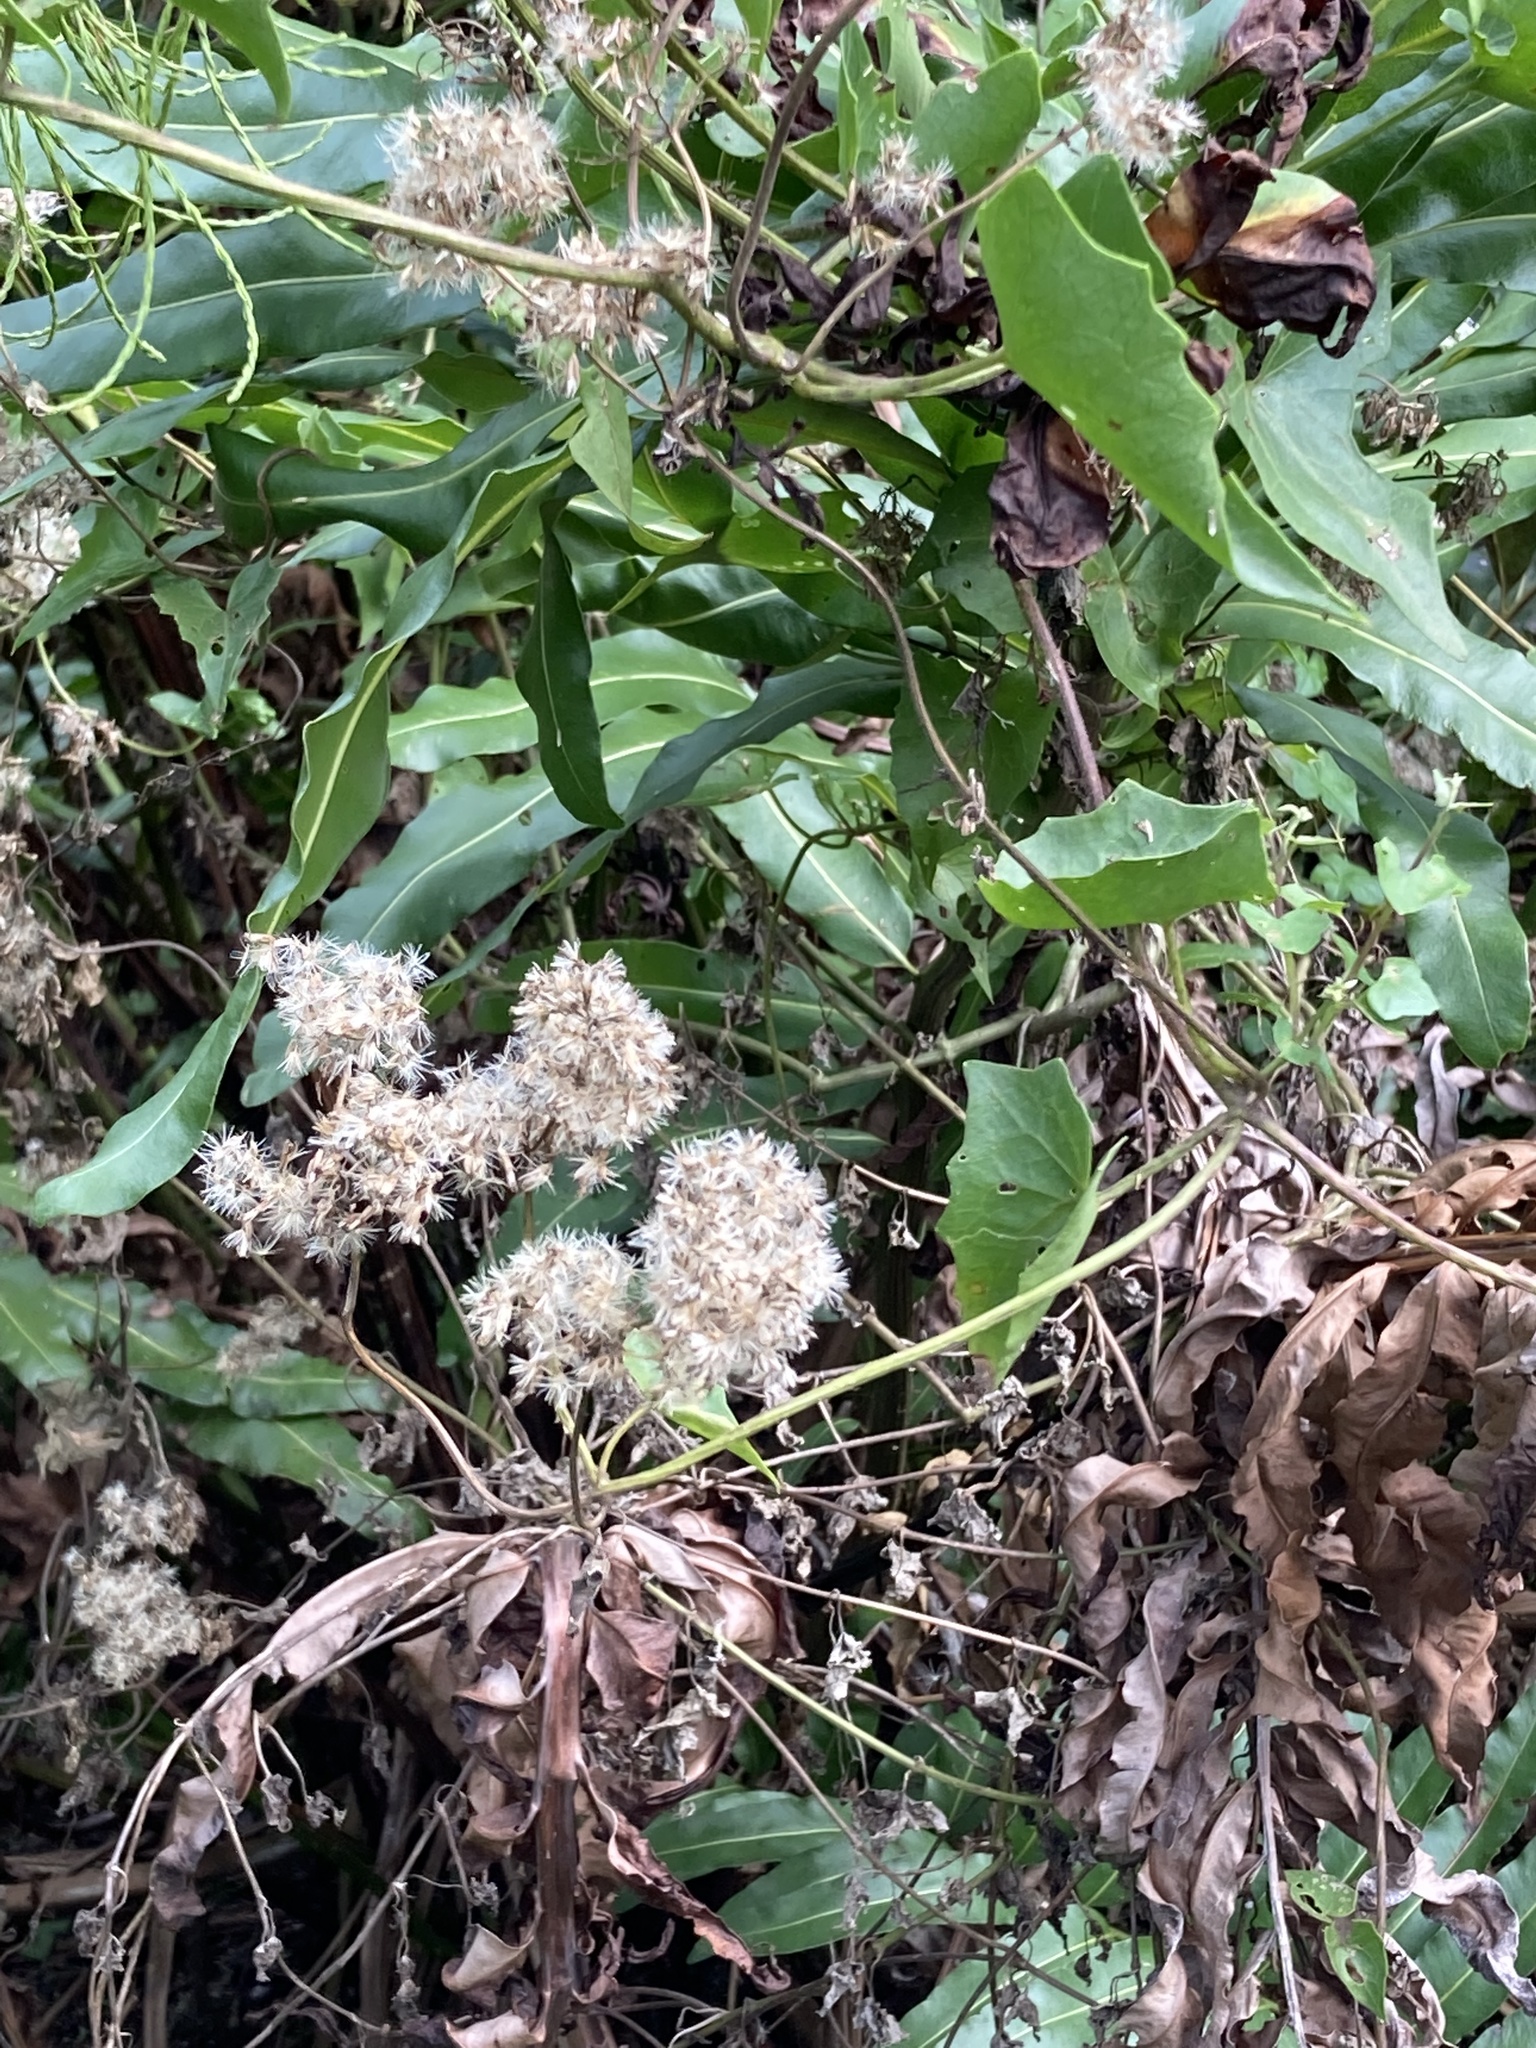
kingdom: Plantae
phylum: Tracheophyta
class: Magnoliopsida
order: Asterales
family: Asteraceae
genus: Mikania
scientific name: Mikania scandens
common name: Climbing hempvine
